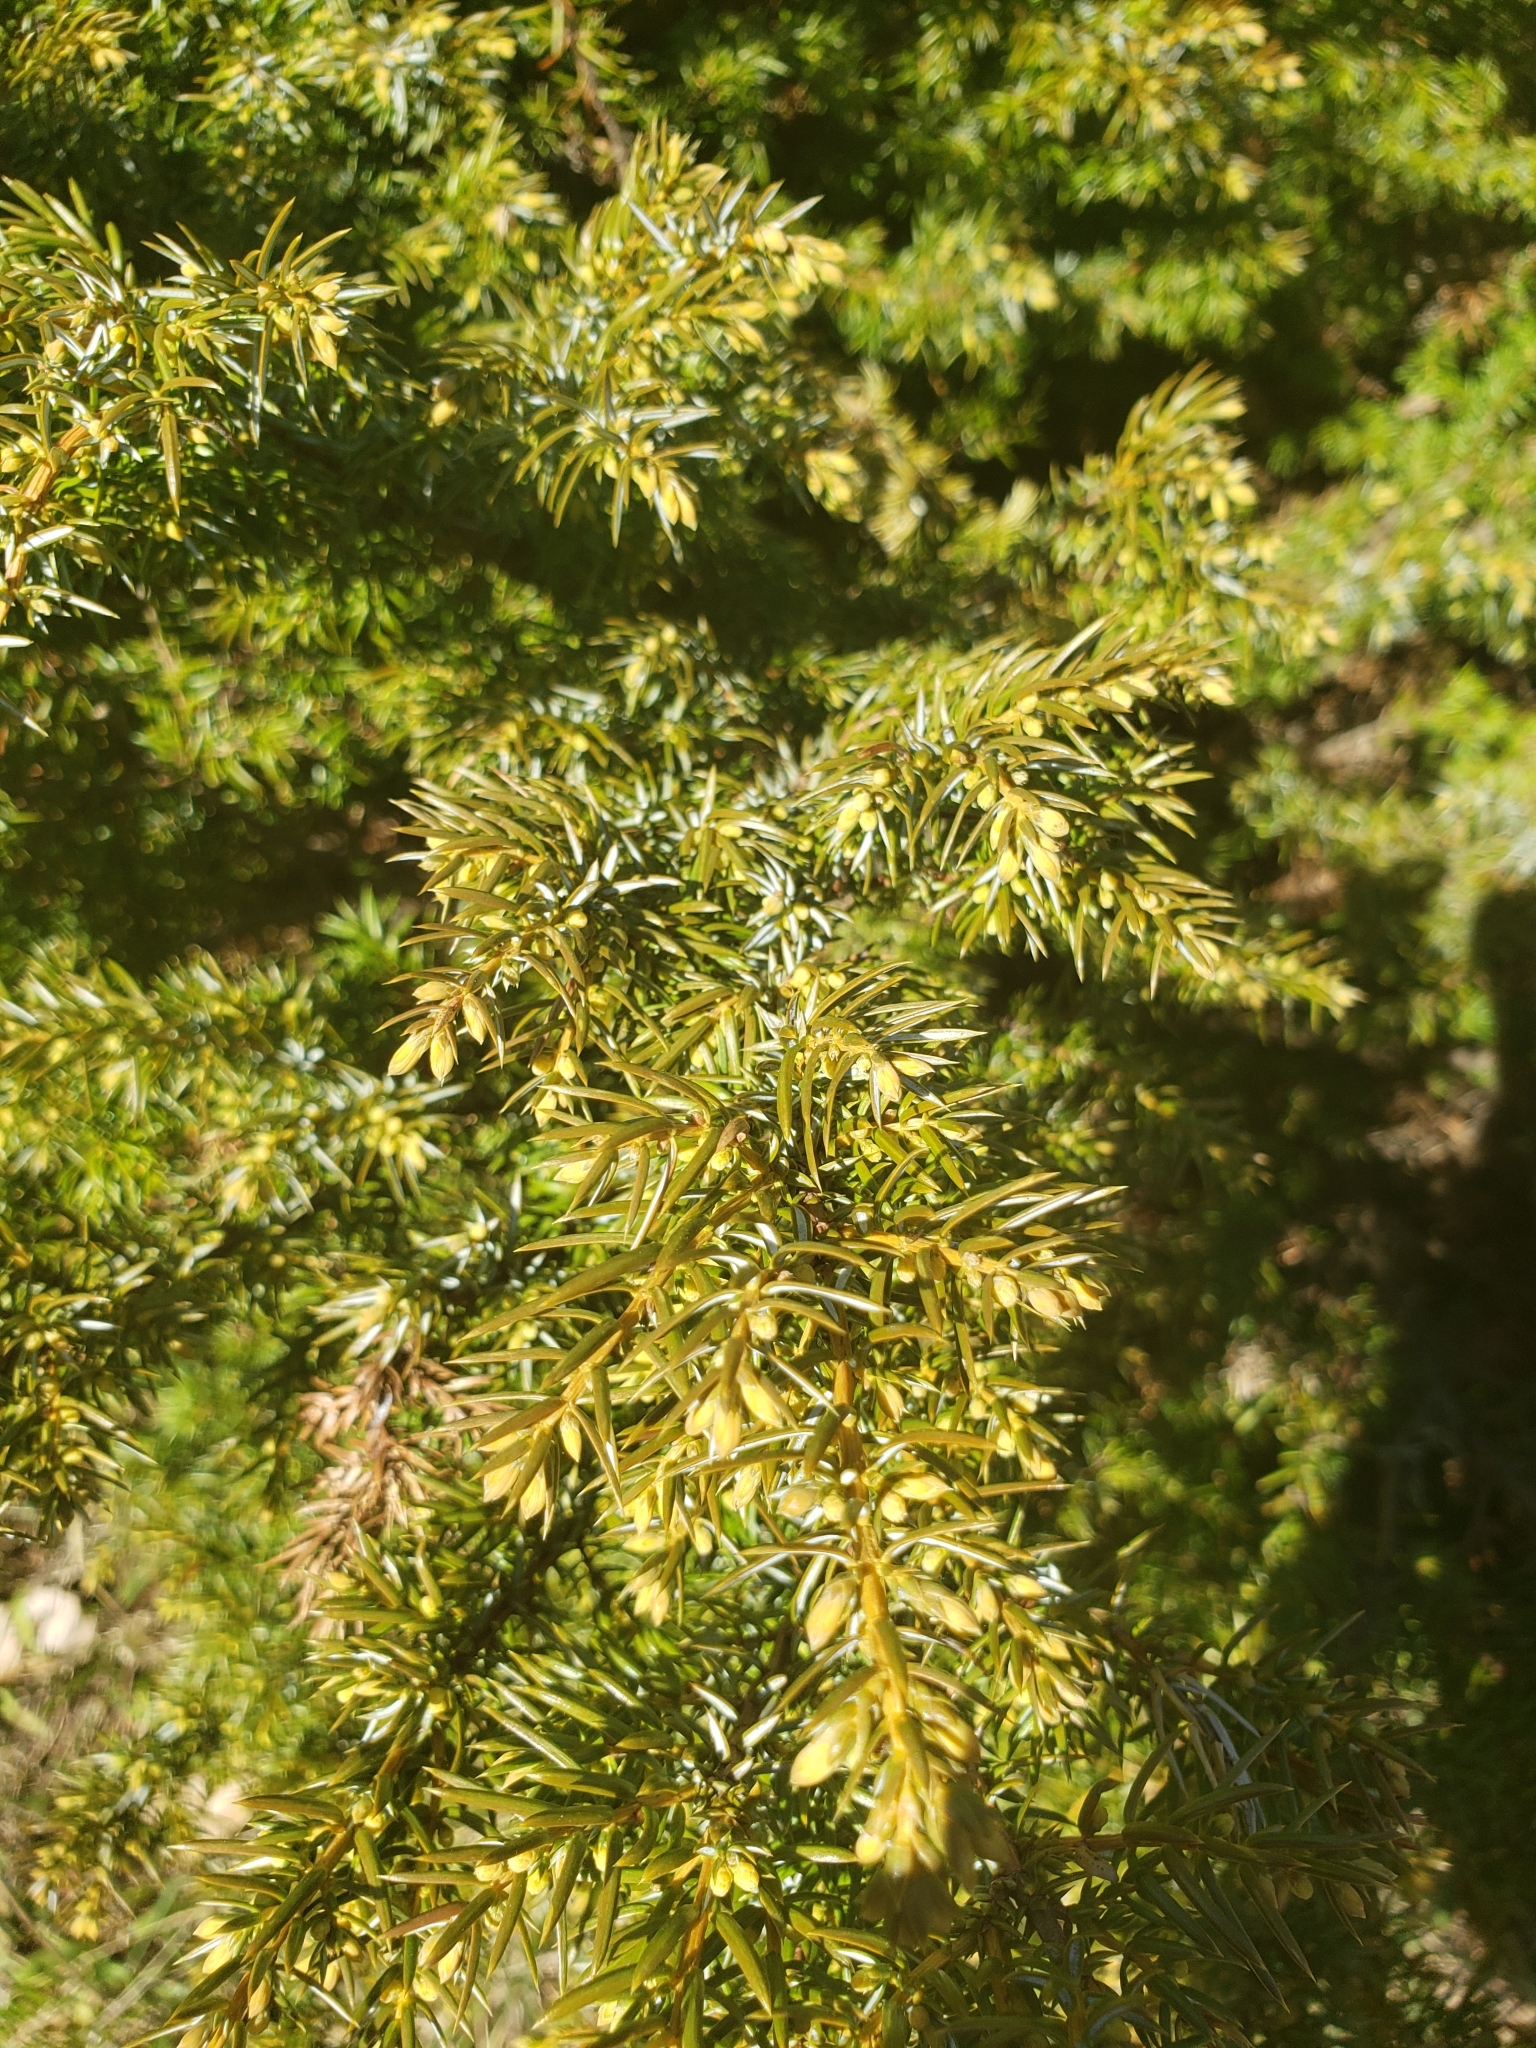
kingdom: Plantae
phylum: Tracheophyta
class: Pinopsida
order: Pinales
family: Cupressaceae
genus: Juniperus
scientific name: Juniperus communis
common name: Common juniper
